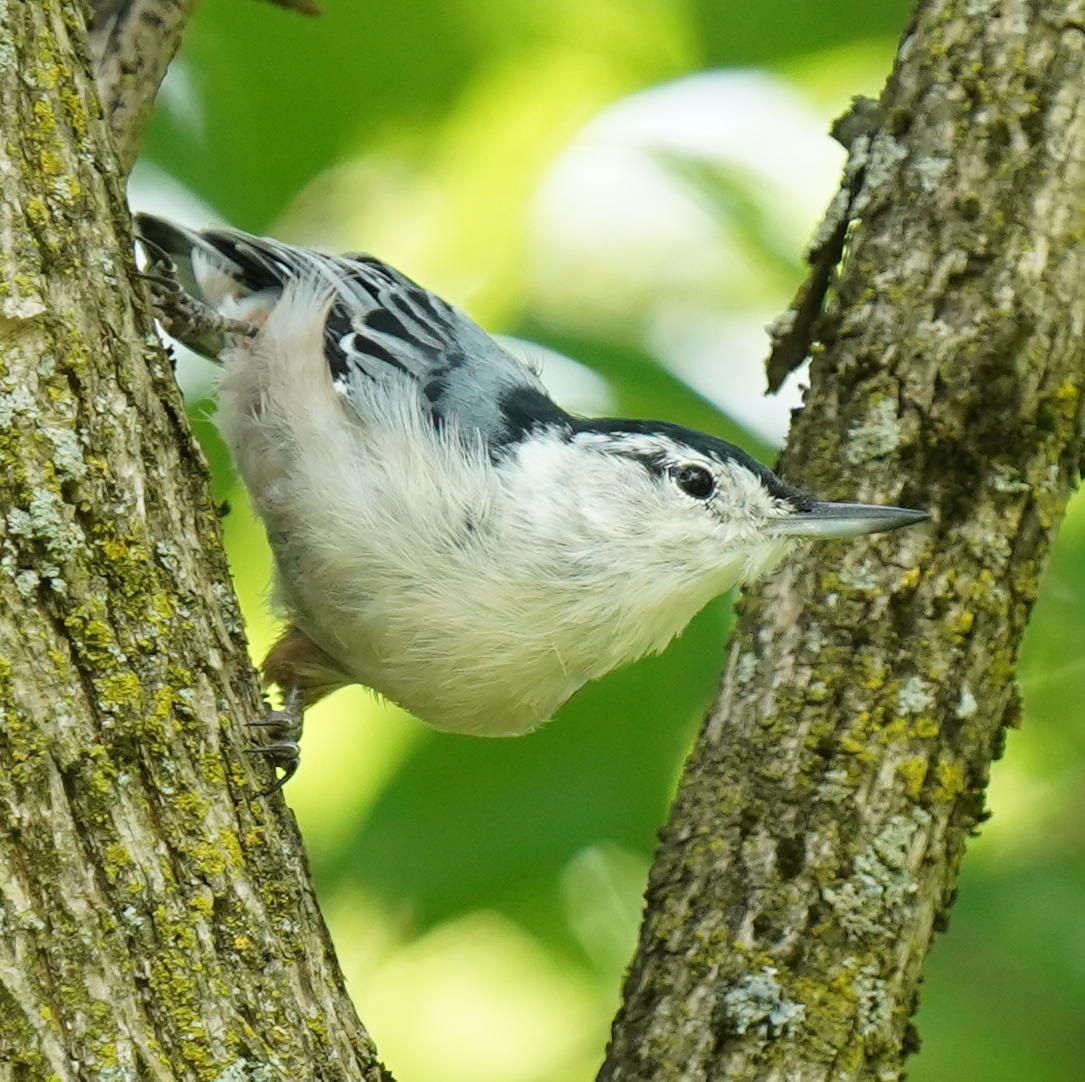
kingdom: Animalia
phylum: Chordata
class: Aves
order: Passeriformes
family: Sittidae
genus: Sitta
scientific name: Sitta carolinensis
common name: White-breasted nuthatch
